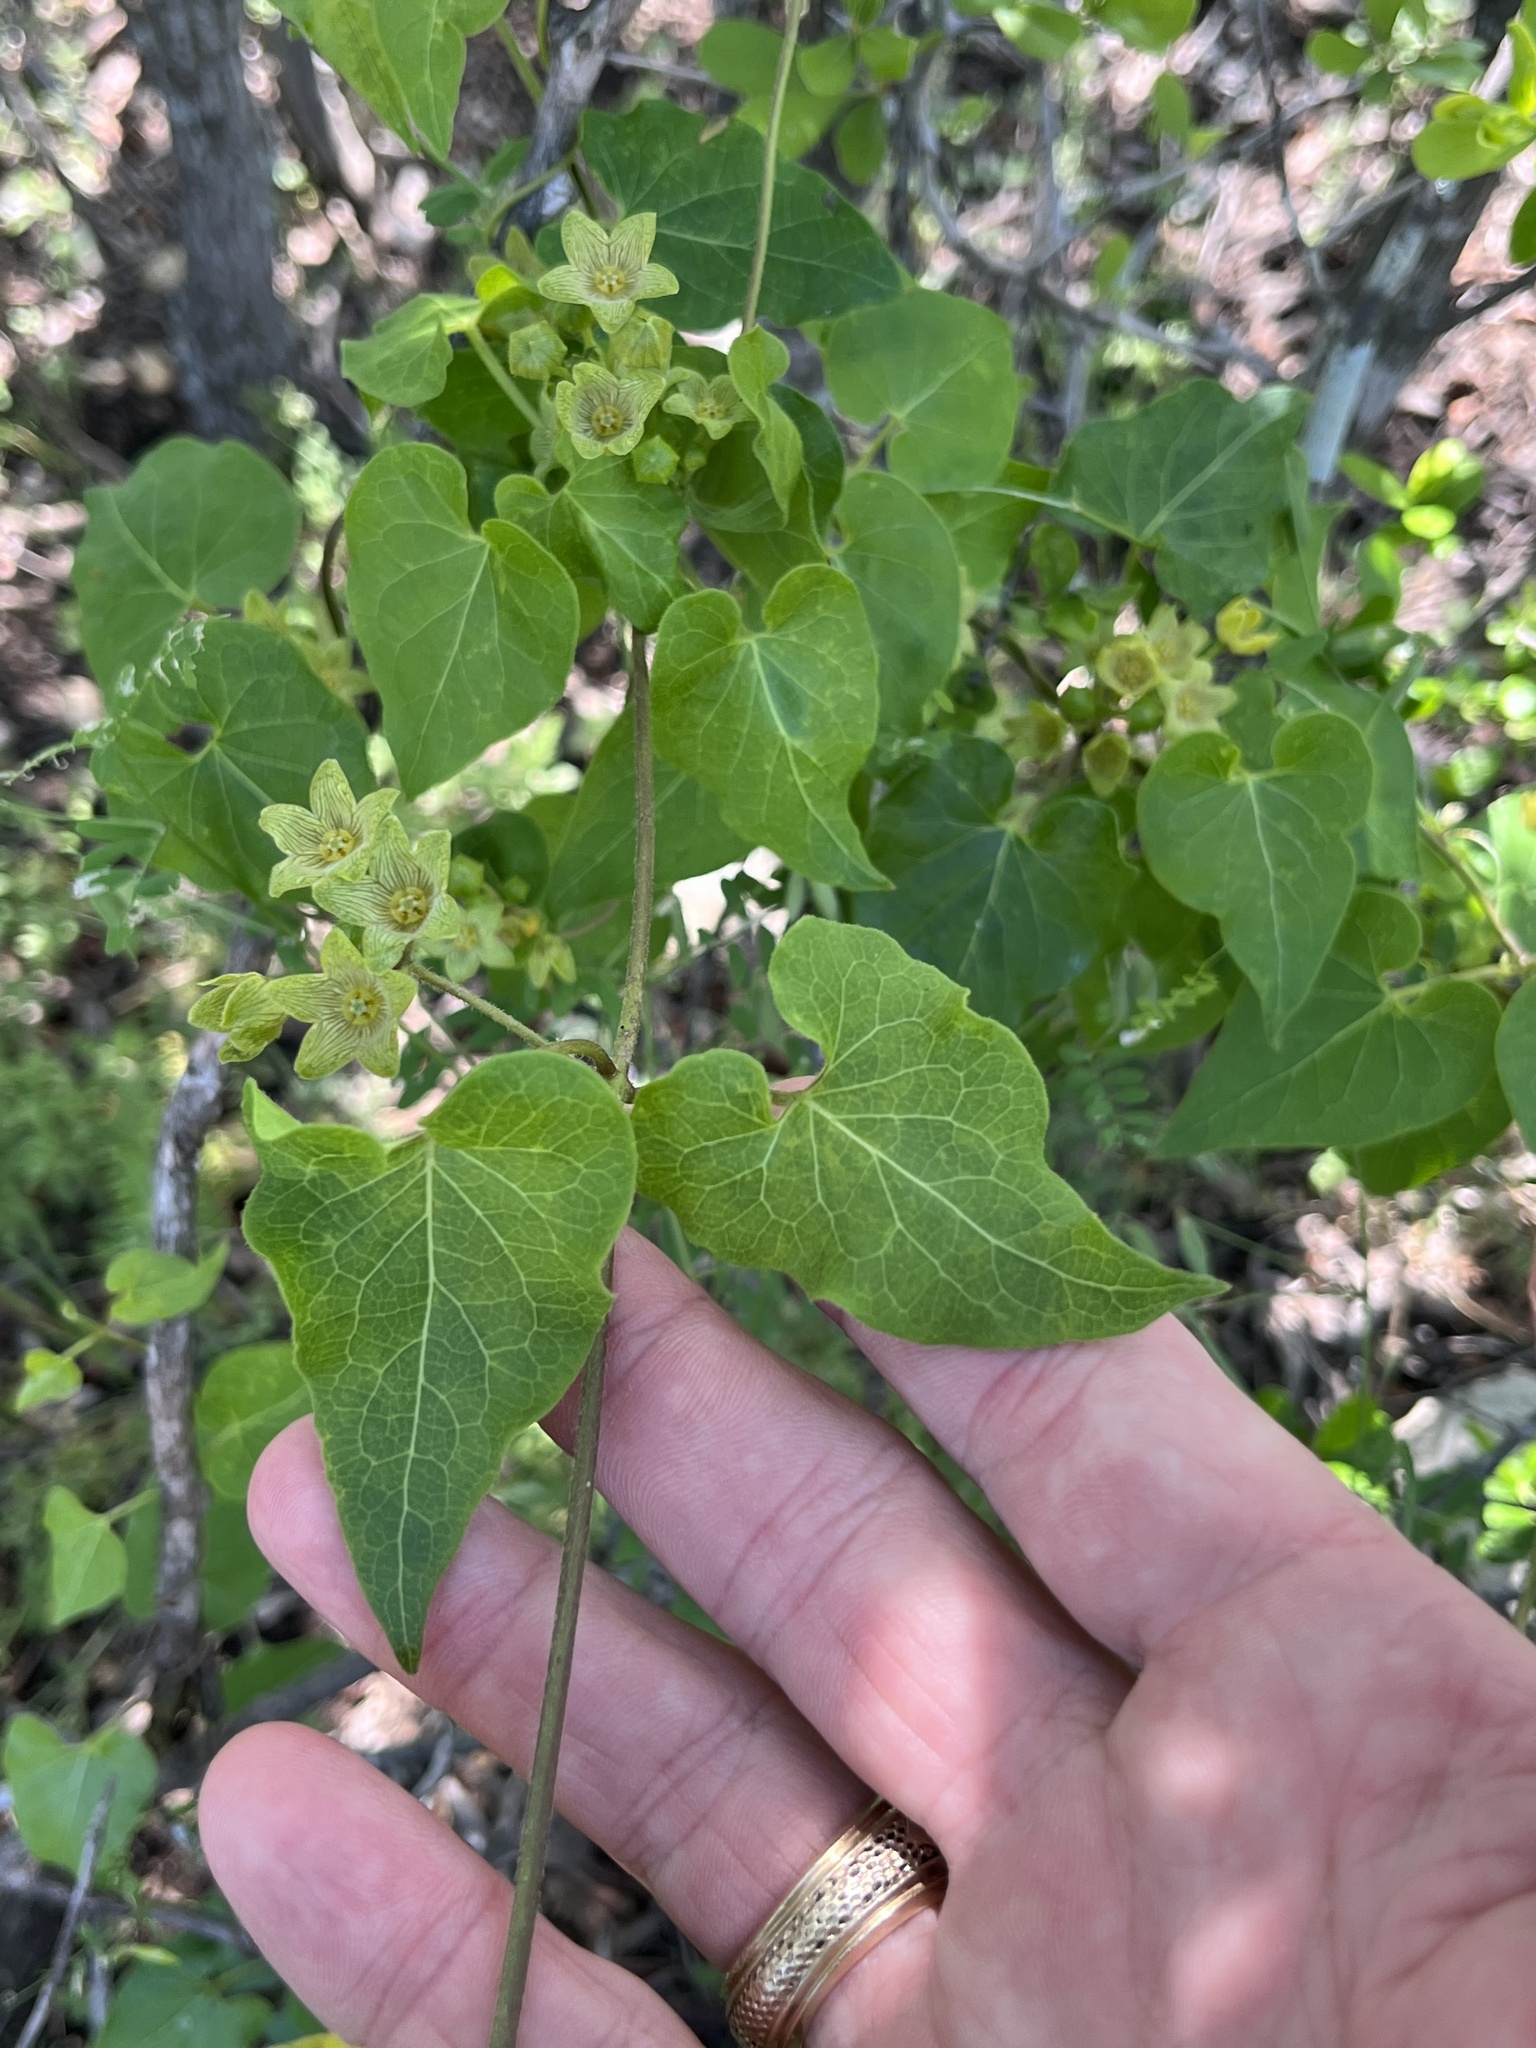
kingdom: Plantae
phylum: Tracheophyta
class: Magnoliopsida
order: Gentianales
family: Apocynaceae
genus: Matelea
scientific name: Matelea edwardsensis
